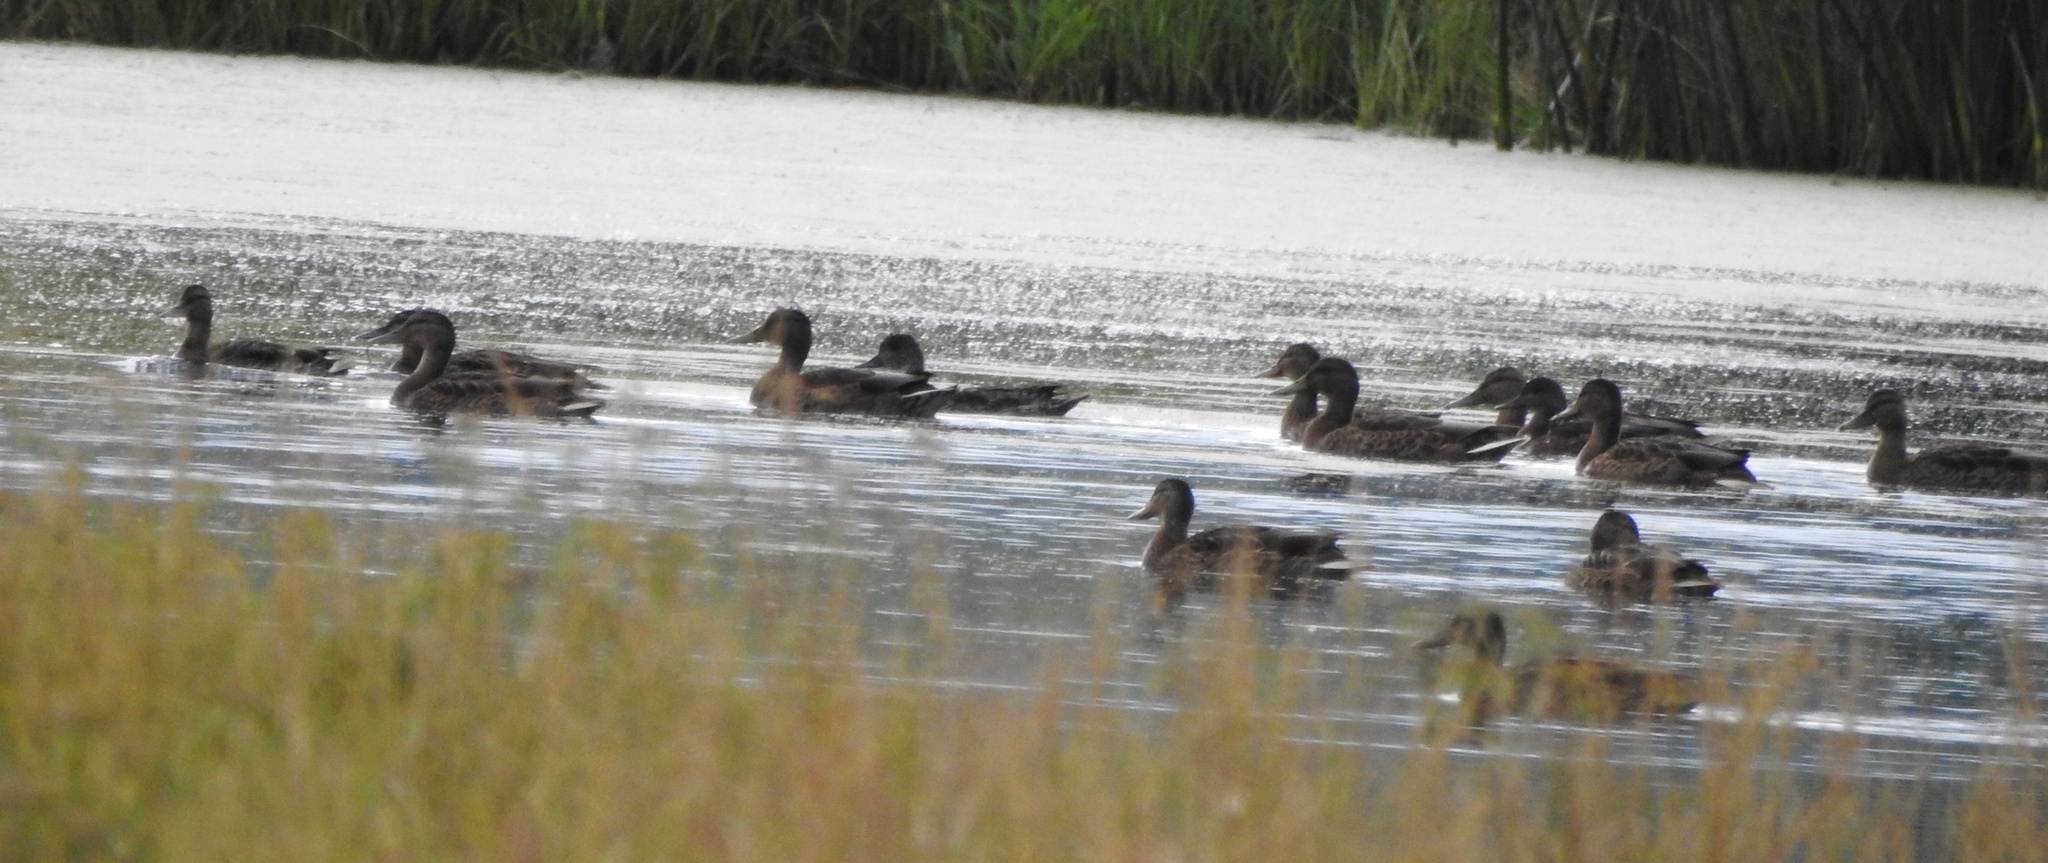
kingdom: Animalia
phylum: Chordata
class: Aves
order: Anseriformes
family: Anatidae
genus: Anas
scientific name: Anas platyrhynchos
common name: Mallard
